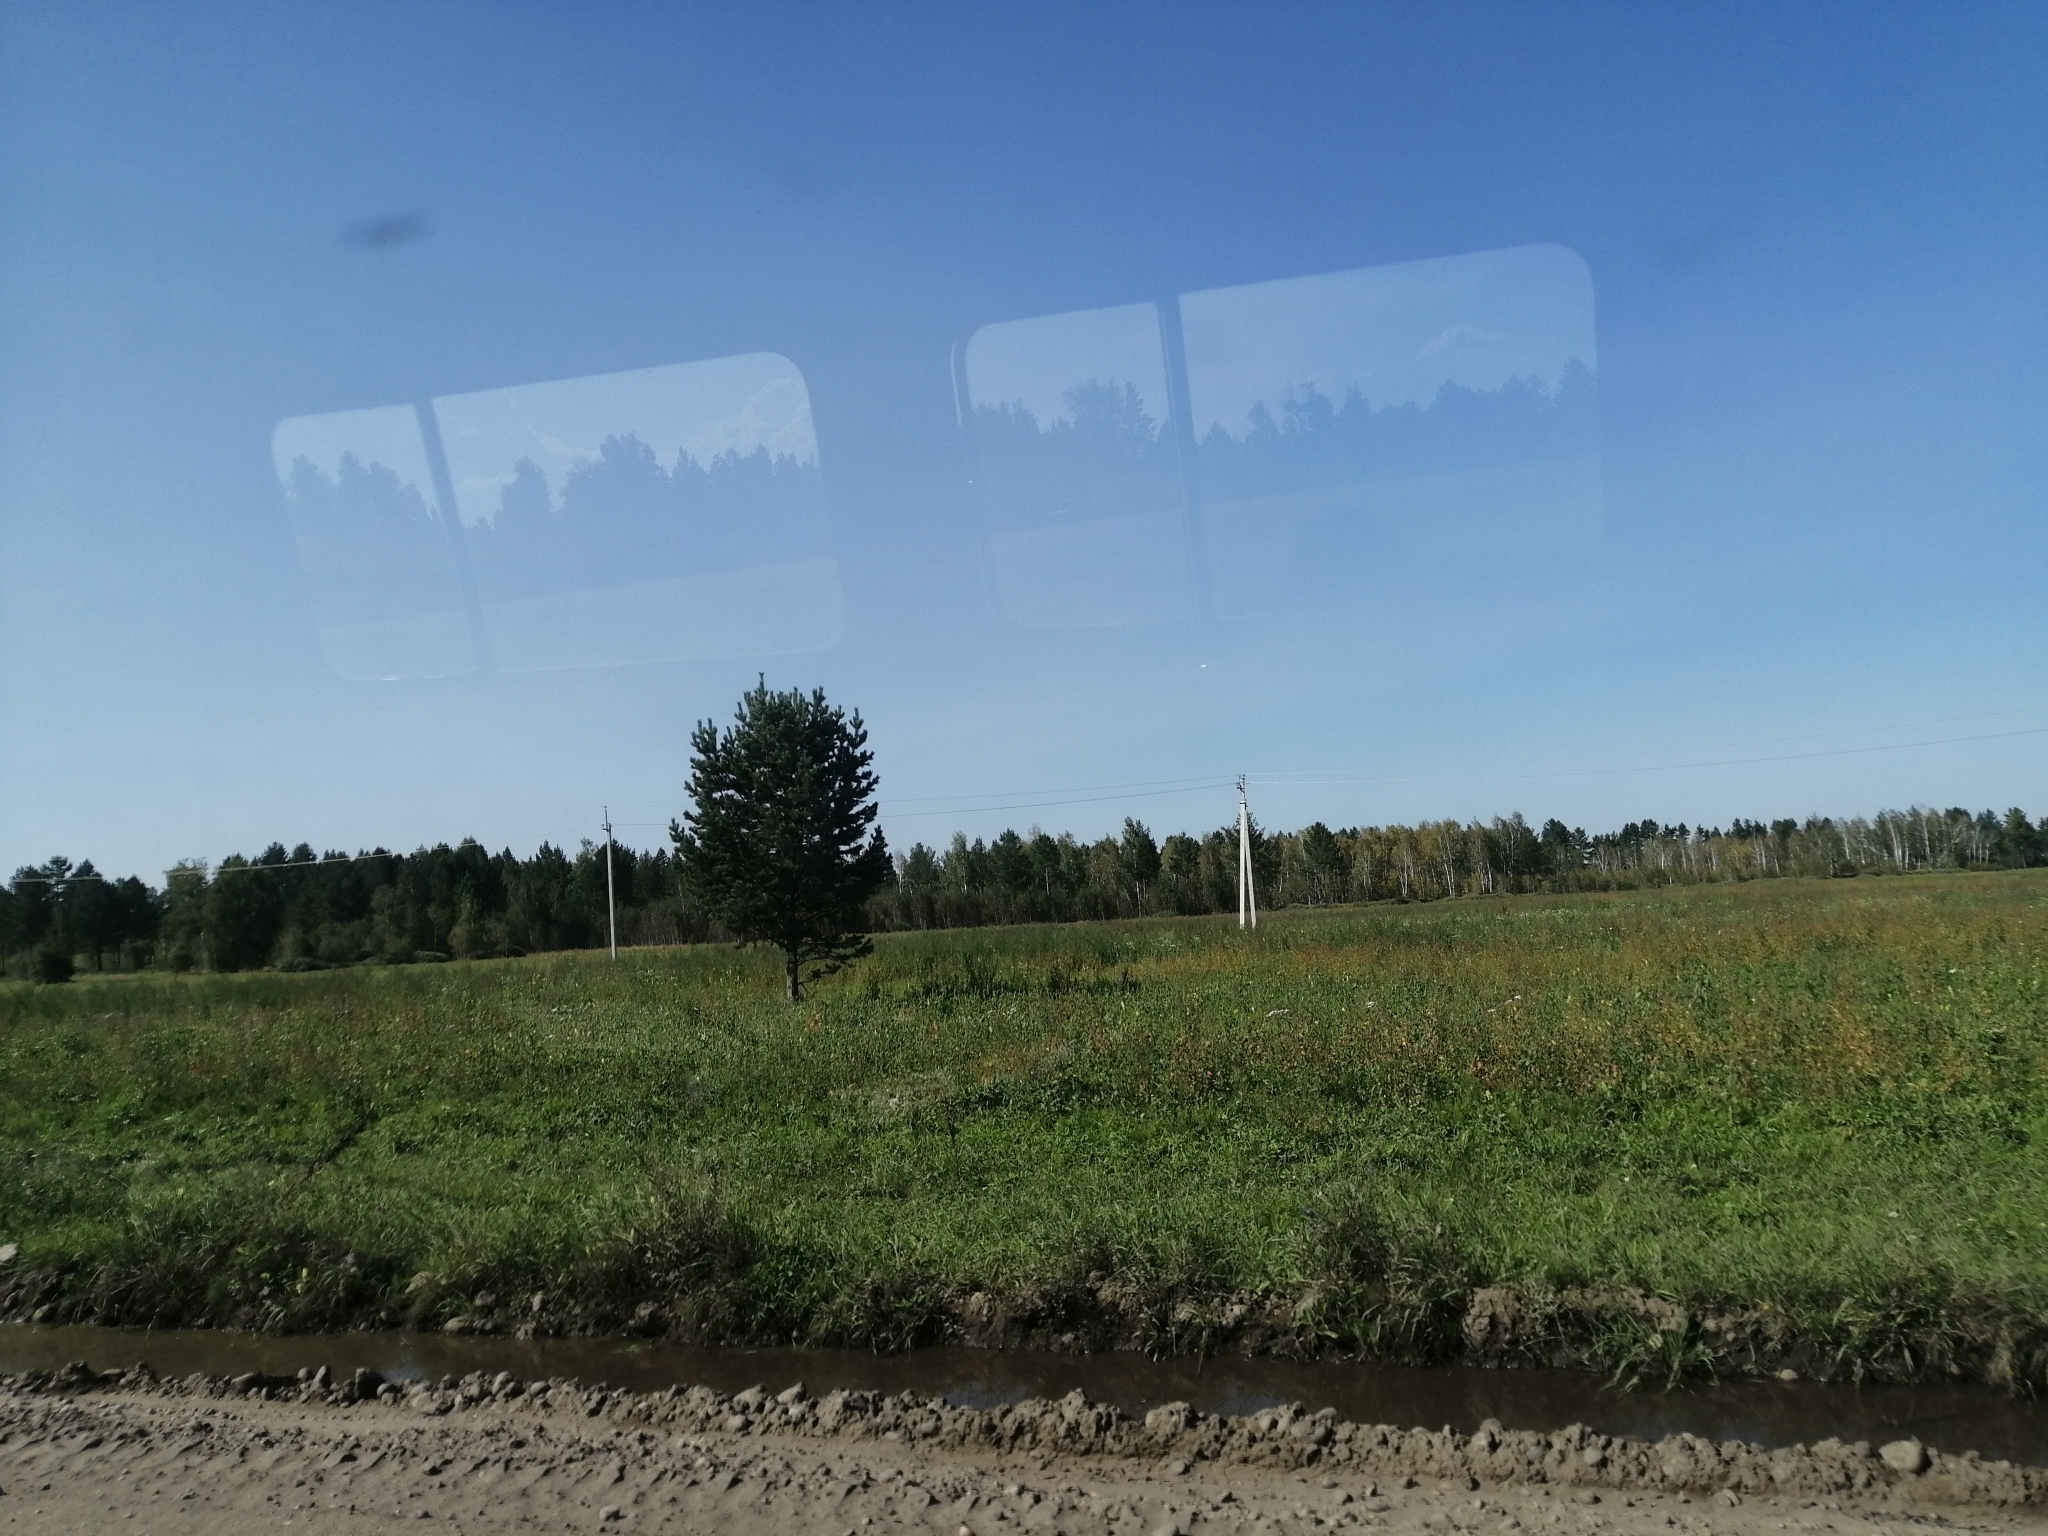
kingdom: Plantae
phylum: Tracheophyta
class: Pinopsida
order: Pinales
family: Pinaceae
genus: Pinus
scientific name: Pinus sylvestris
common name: Scots pine
